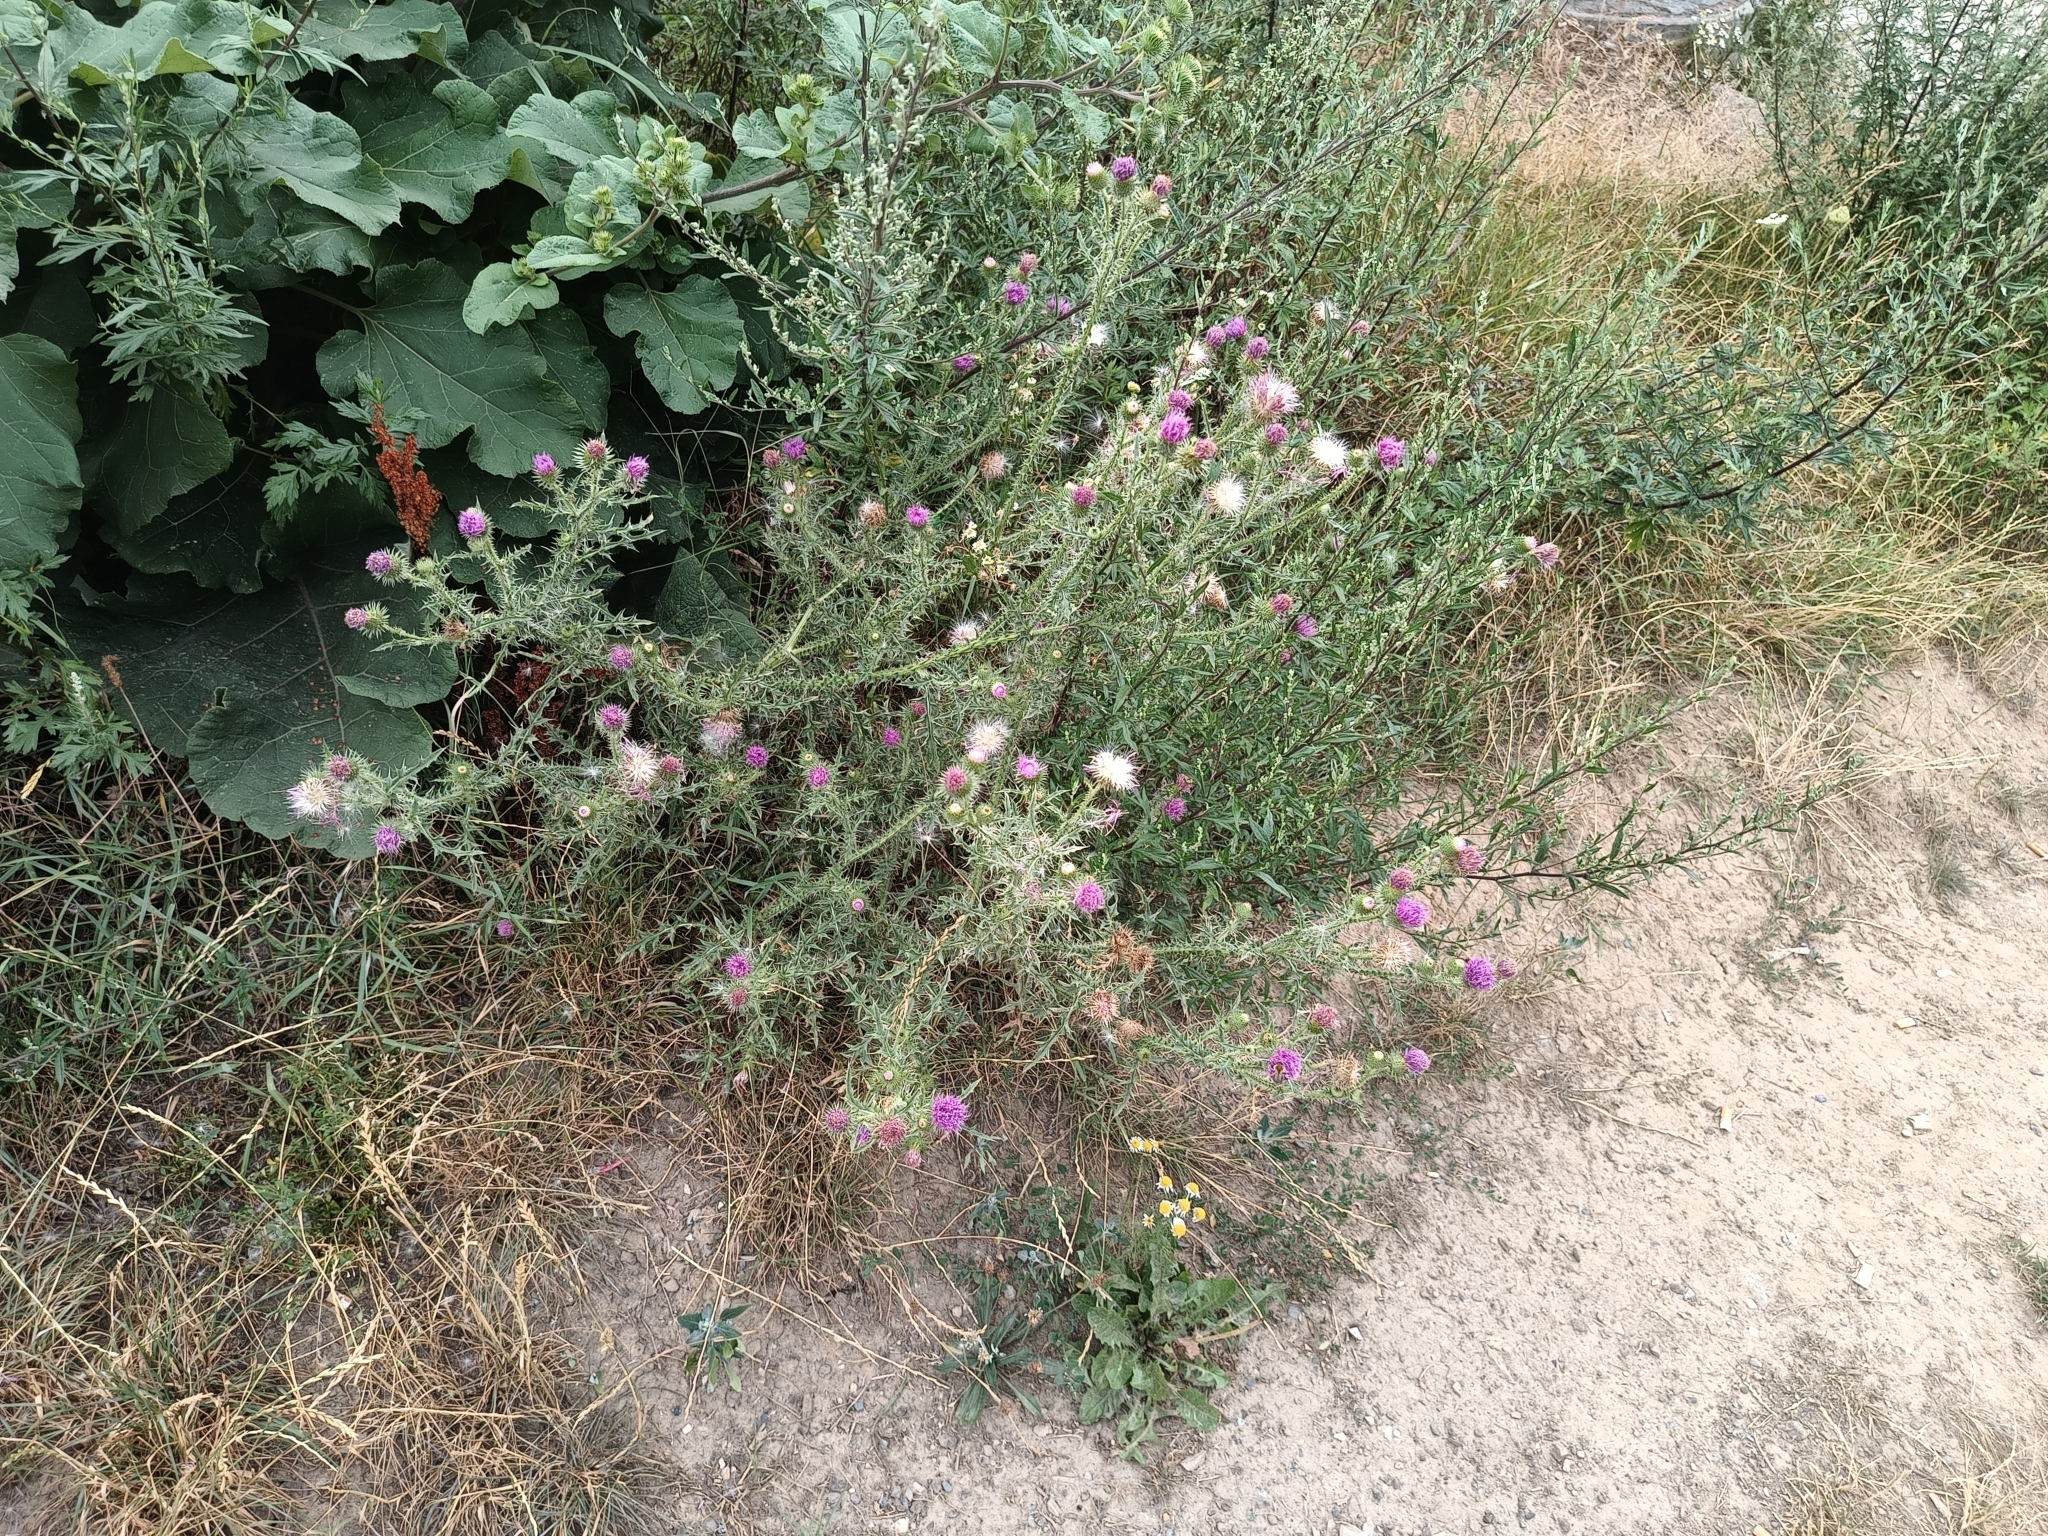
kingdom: Plantae
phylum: Tracheophyta
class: Magnoliopsida
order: Asterales
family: Asteraceae
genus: Carduus
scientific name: Carduus acanthoides
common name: Plumeless thistle
